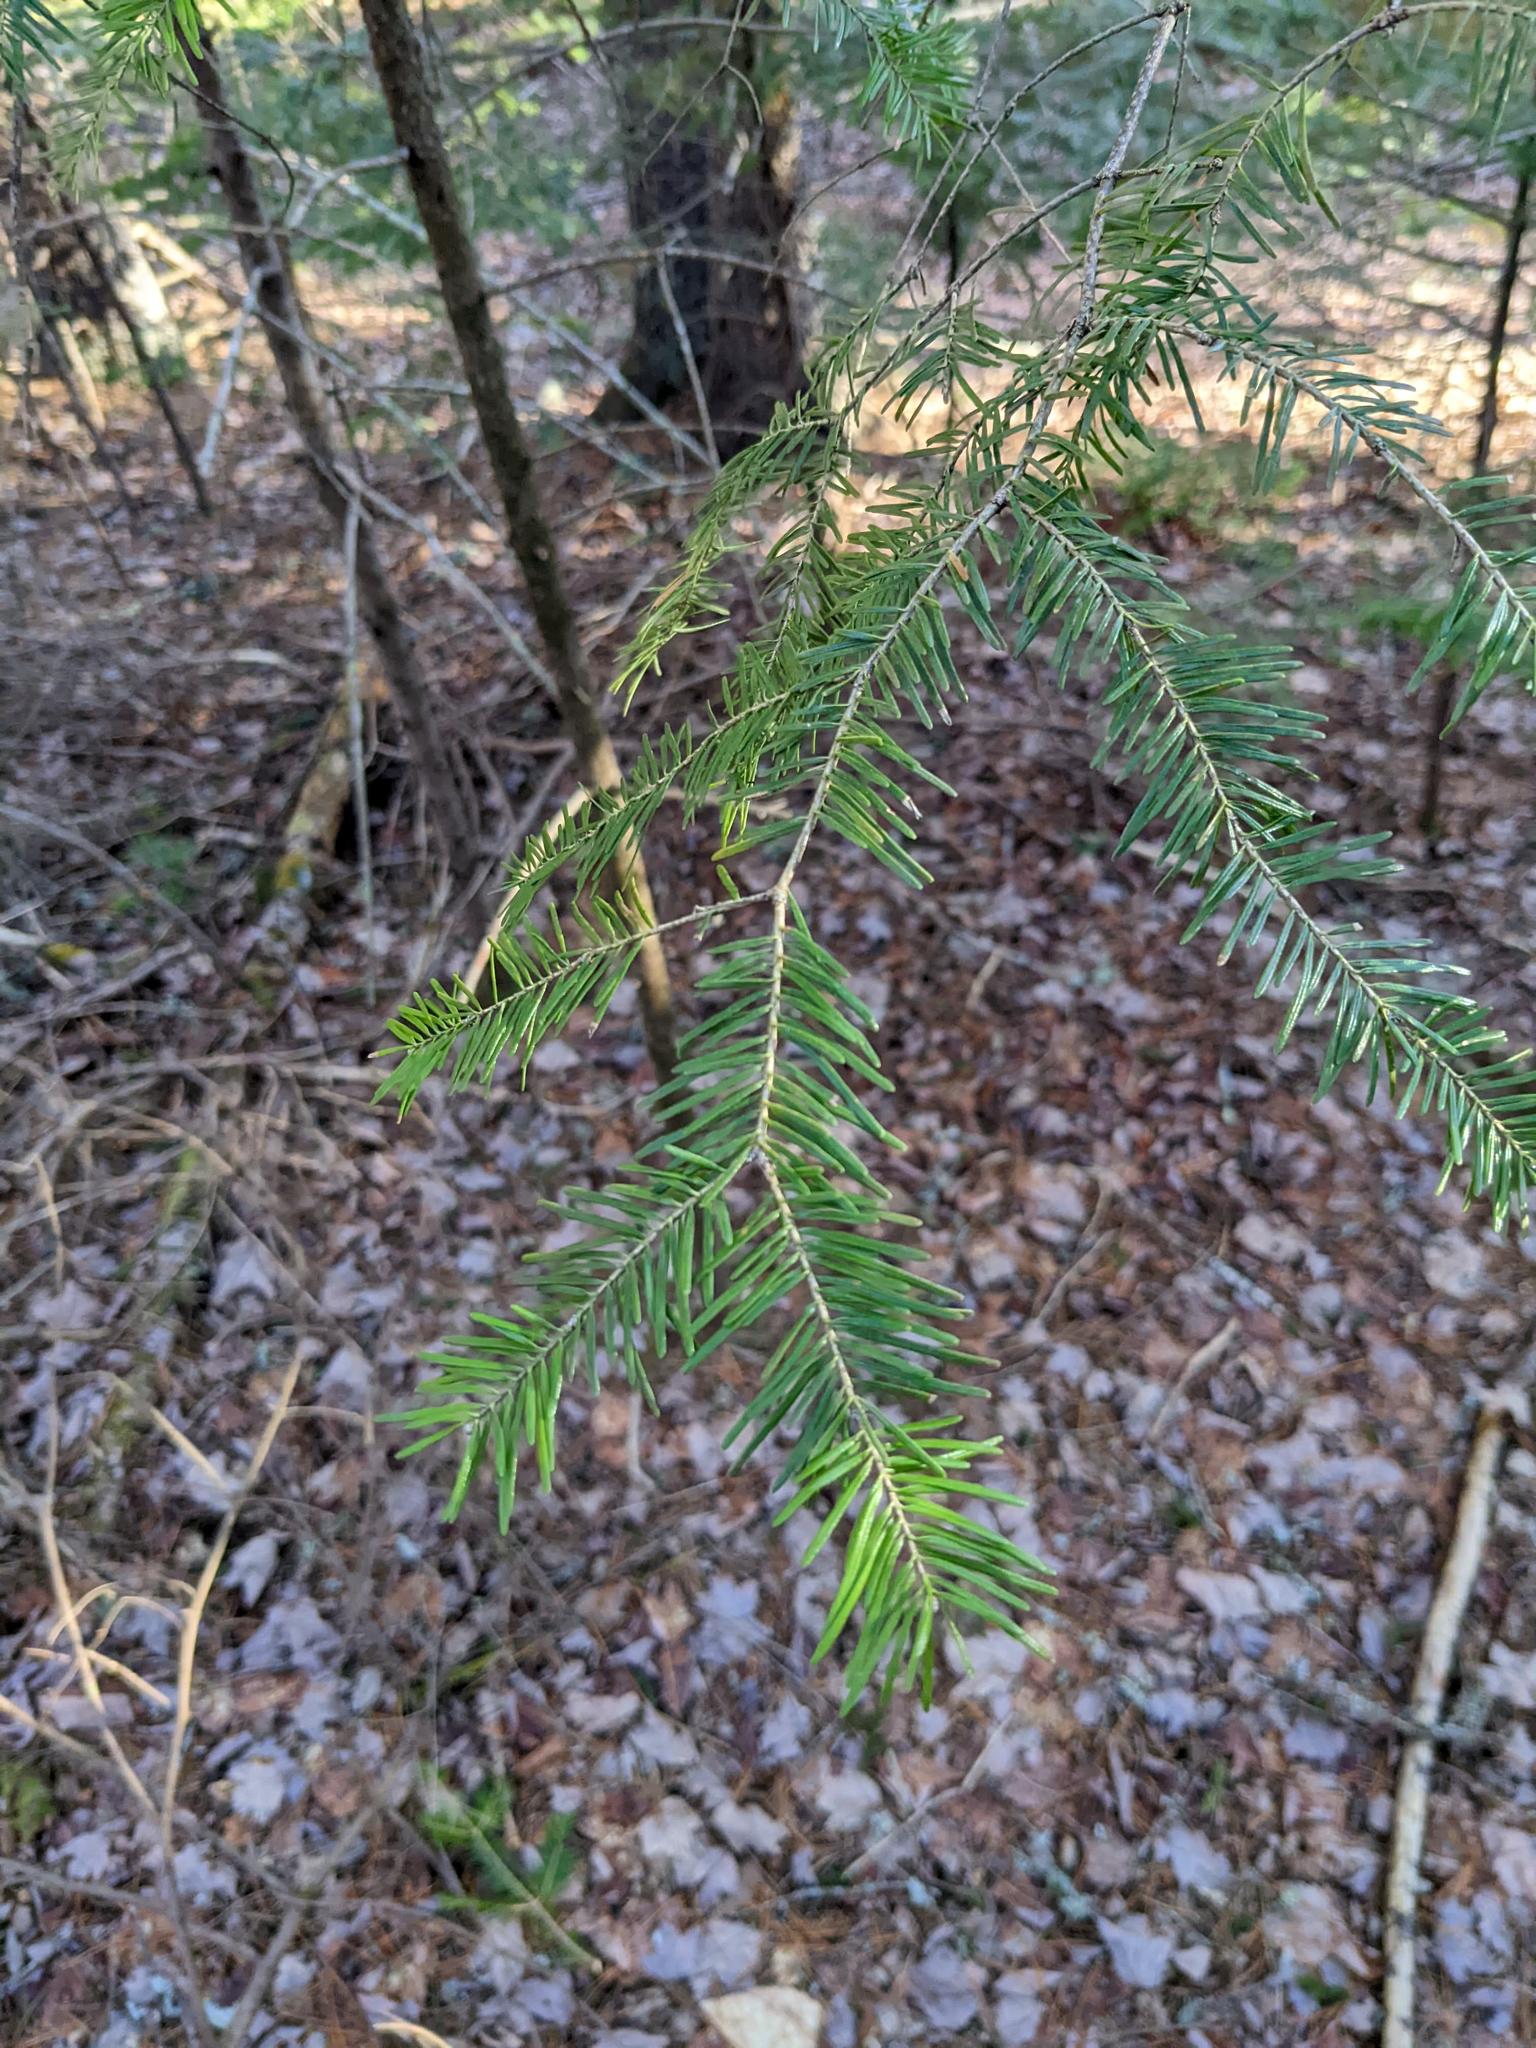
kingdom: Plantae
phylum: Tracheophyta
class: Pinopsida
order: Pinales
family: Pinaceae
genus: Abies
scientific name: Abies balsamea
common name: Balsam fir
